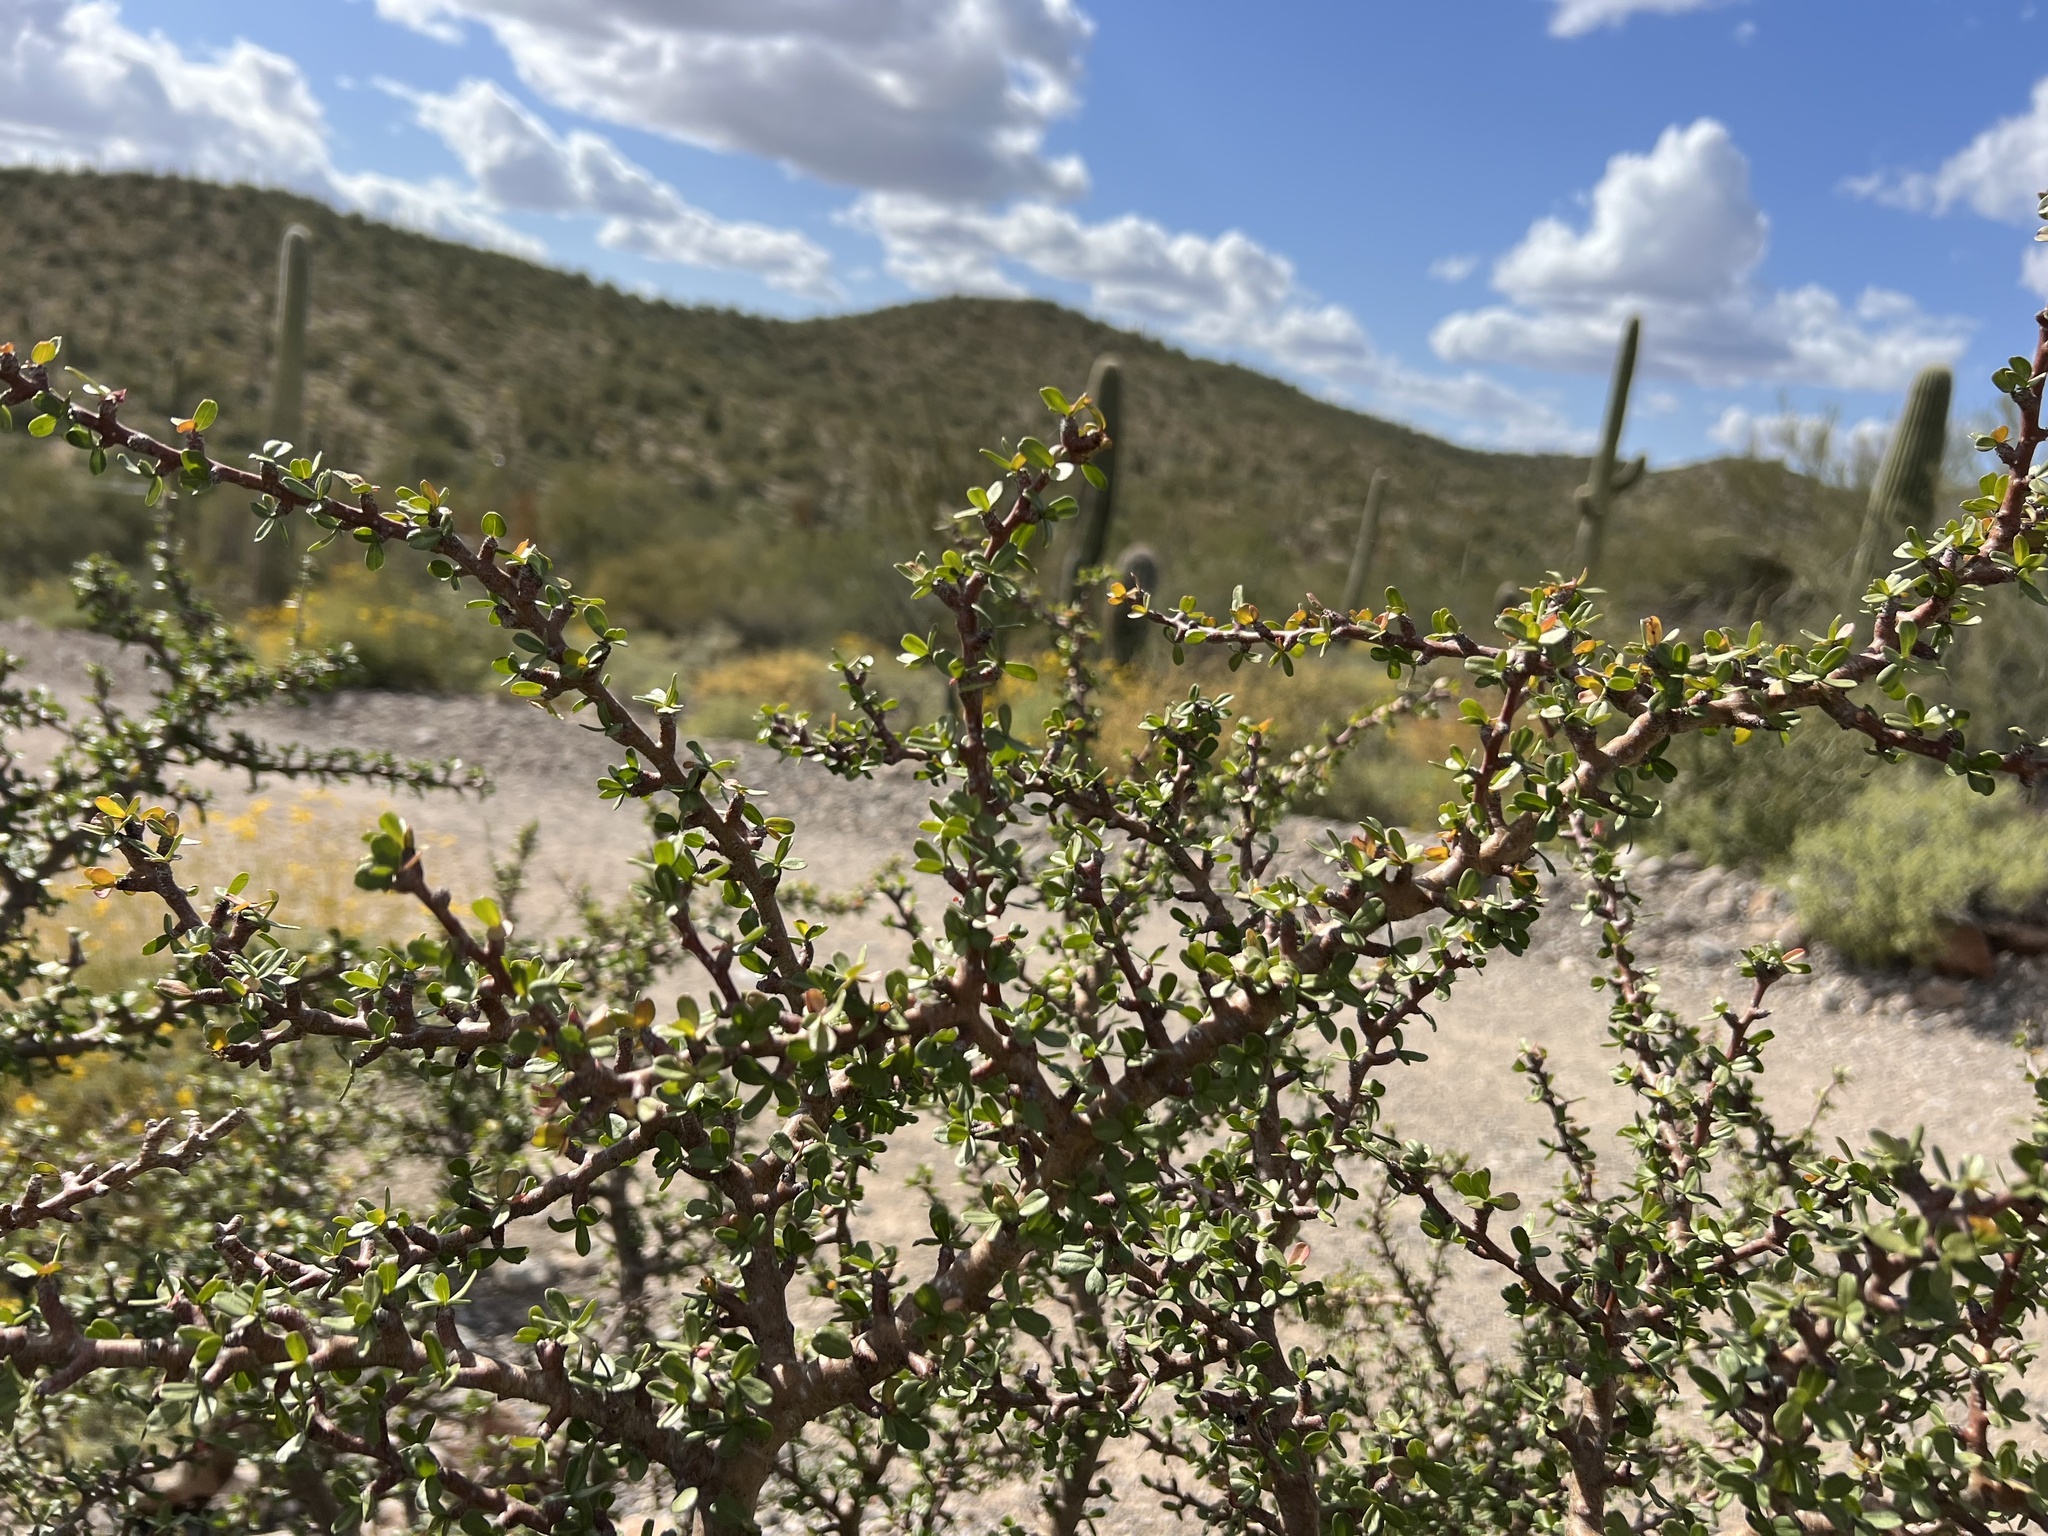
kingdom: Plantae
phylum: Tracheophyta
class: Magnoliopsida
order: Malpighiales
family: Euphorbiaceae
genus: Jatropha
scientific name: Jatropha cuneata
